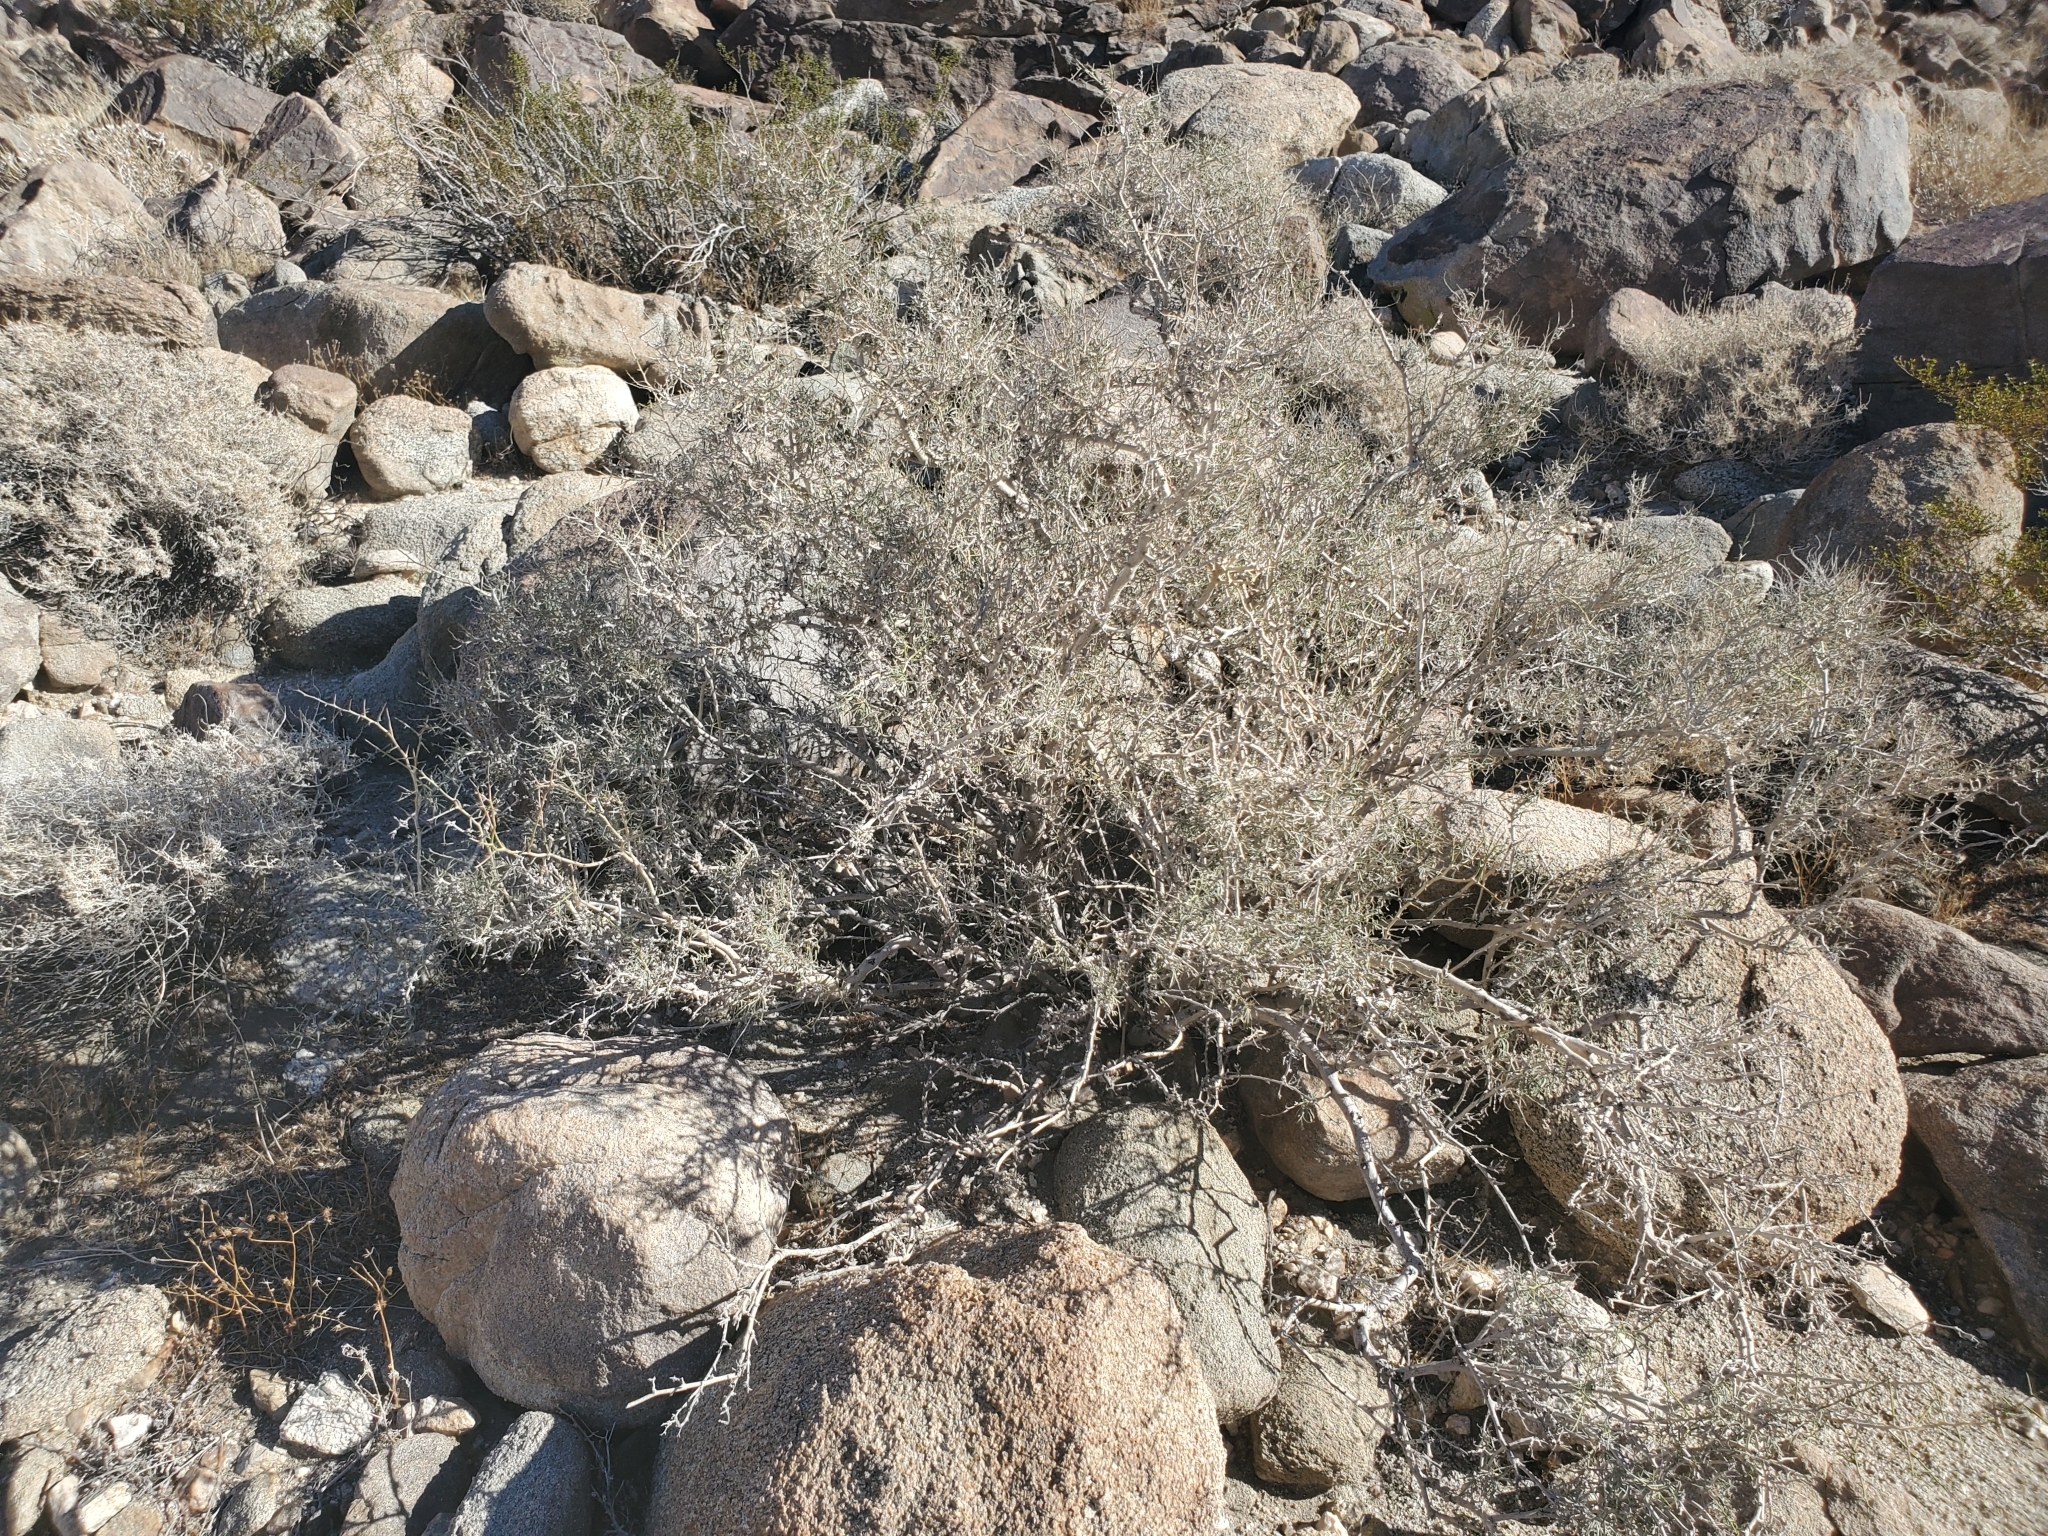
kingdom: Plantae
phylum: Tracheophyta
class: Magnoliopsida
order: Fabales
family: Fabaceae
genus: Psorothamnus
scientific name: Psorothamnus schottii
